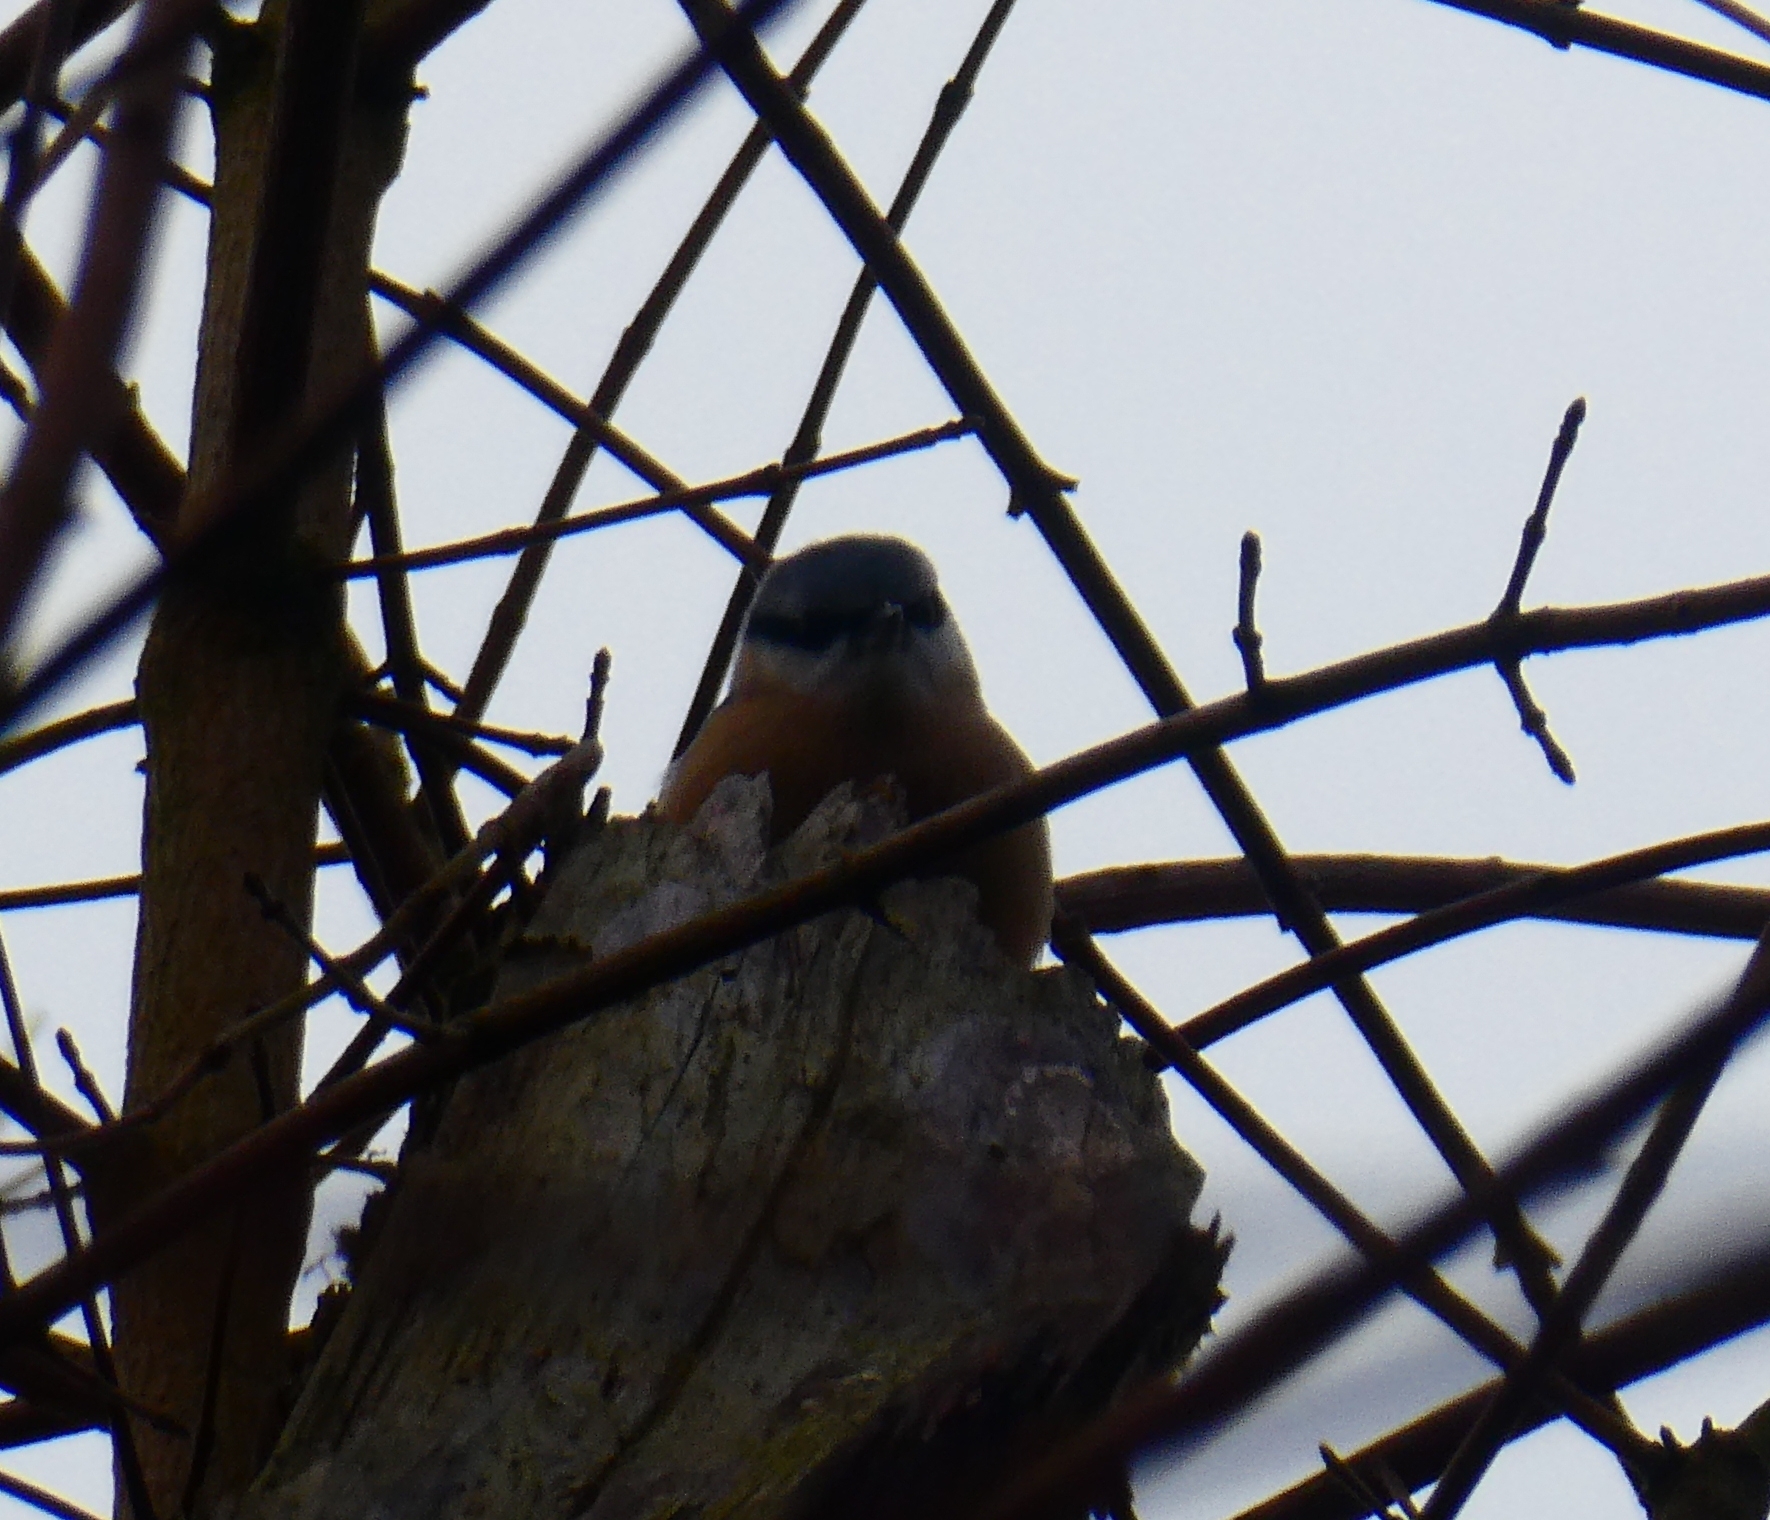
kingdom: Animalia
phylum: Chordata
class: Aves
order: Passeriformes
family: Sittidae
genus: Sitta
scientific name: Sitta europaea
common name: Eurasian nuthatch
